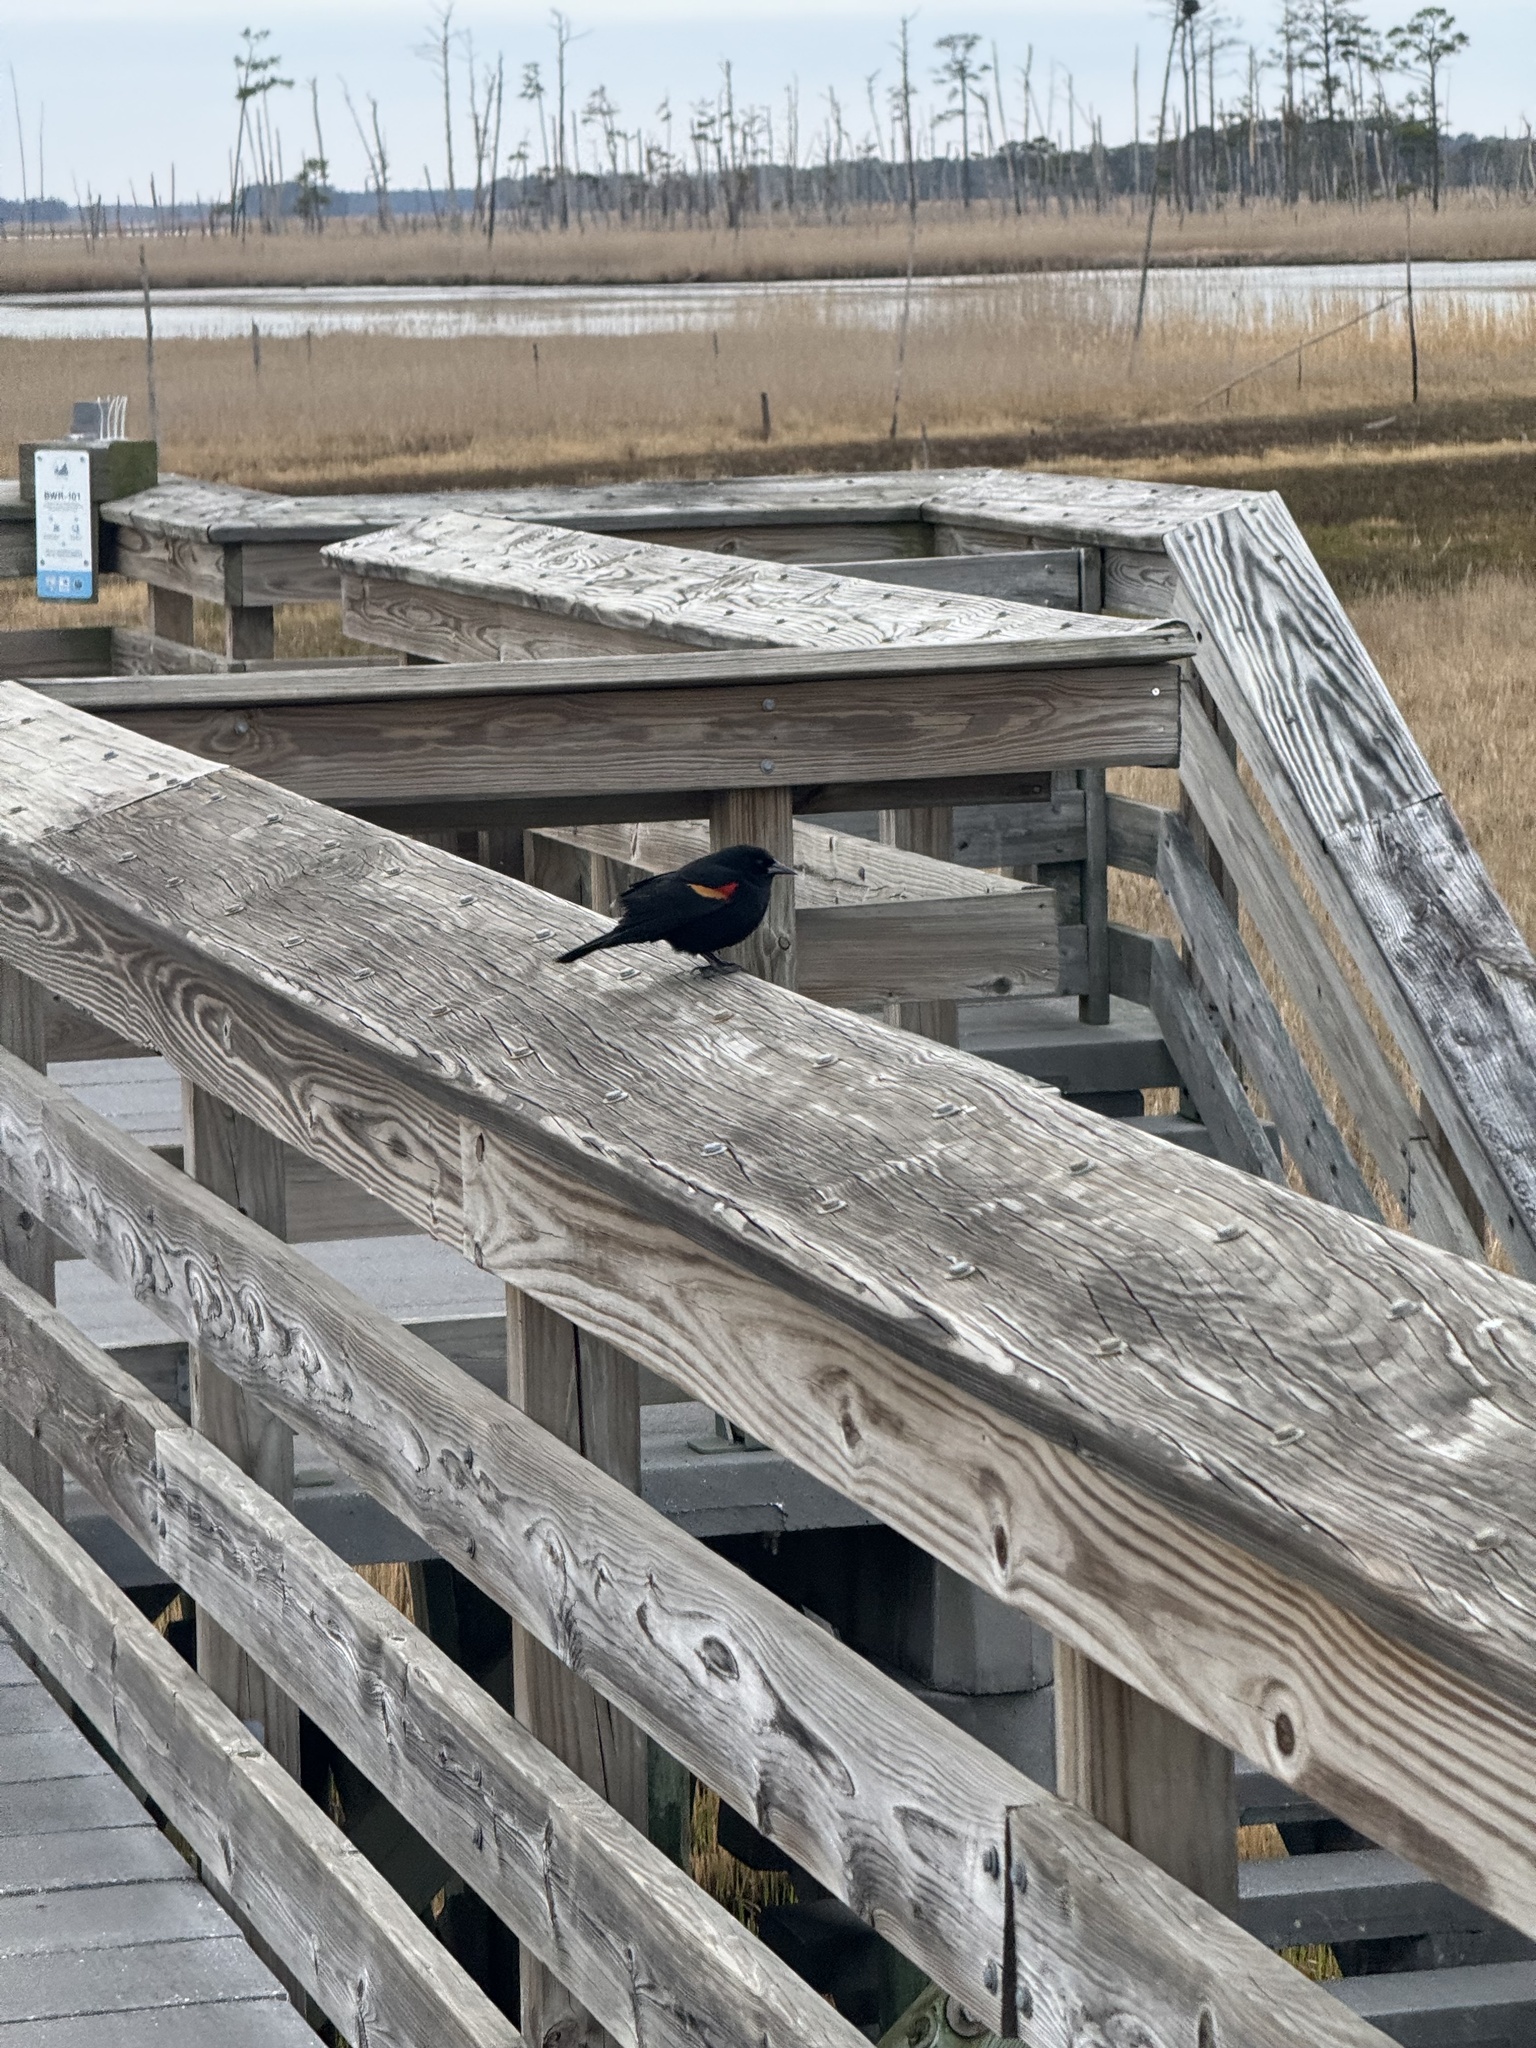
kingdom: Animalia
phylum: Chordata
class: Aves
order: Passeriformes
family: Icteridae
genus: Agelaius
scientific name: Agelaius phoeniceus
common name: Red-winged blackbird
